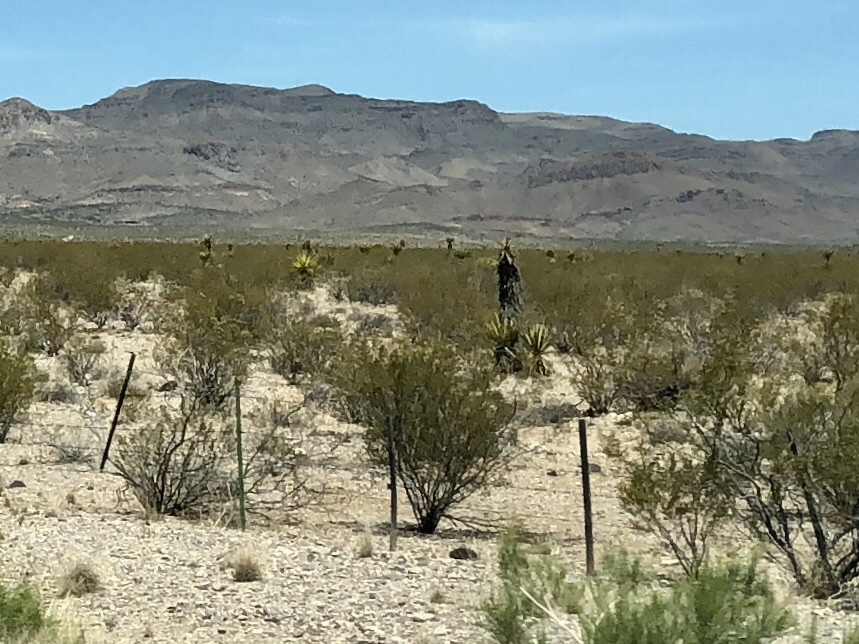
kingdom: Plantae
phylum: Tracheophyta
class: Magnoliopsida
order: Zygophyllales
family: Zygophyllaceae
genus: Larrea
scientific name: Larrea tridentata
